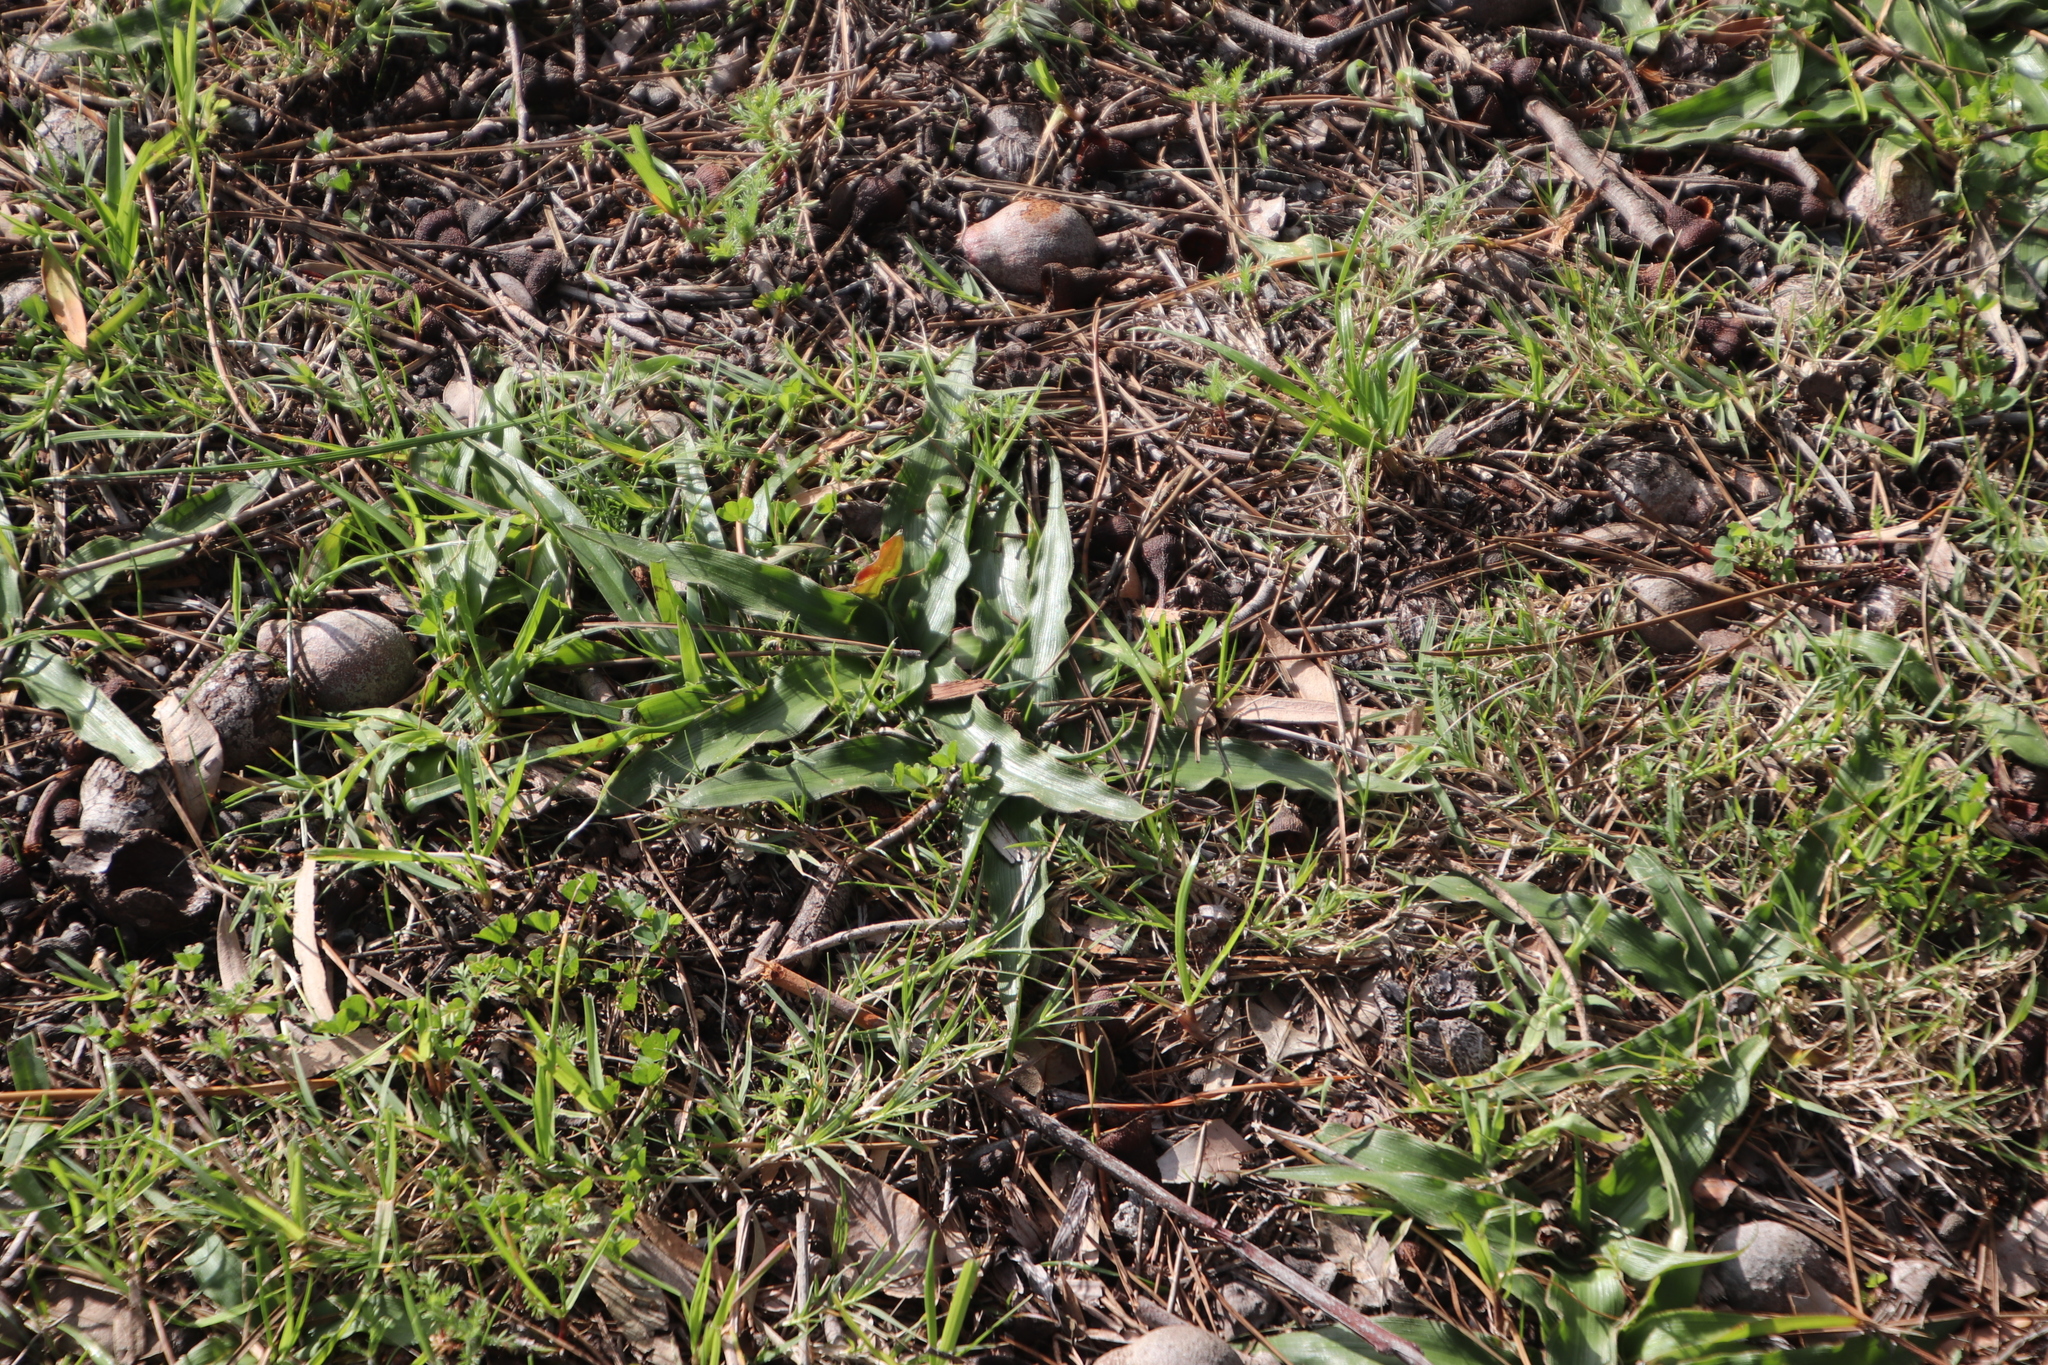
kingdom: Plantae
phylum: Tracheophyta
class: Liliopsida
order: Asparagales
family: Tecophilaeaceae
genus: Cyanella
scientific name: Cyanella hyacinthoides
